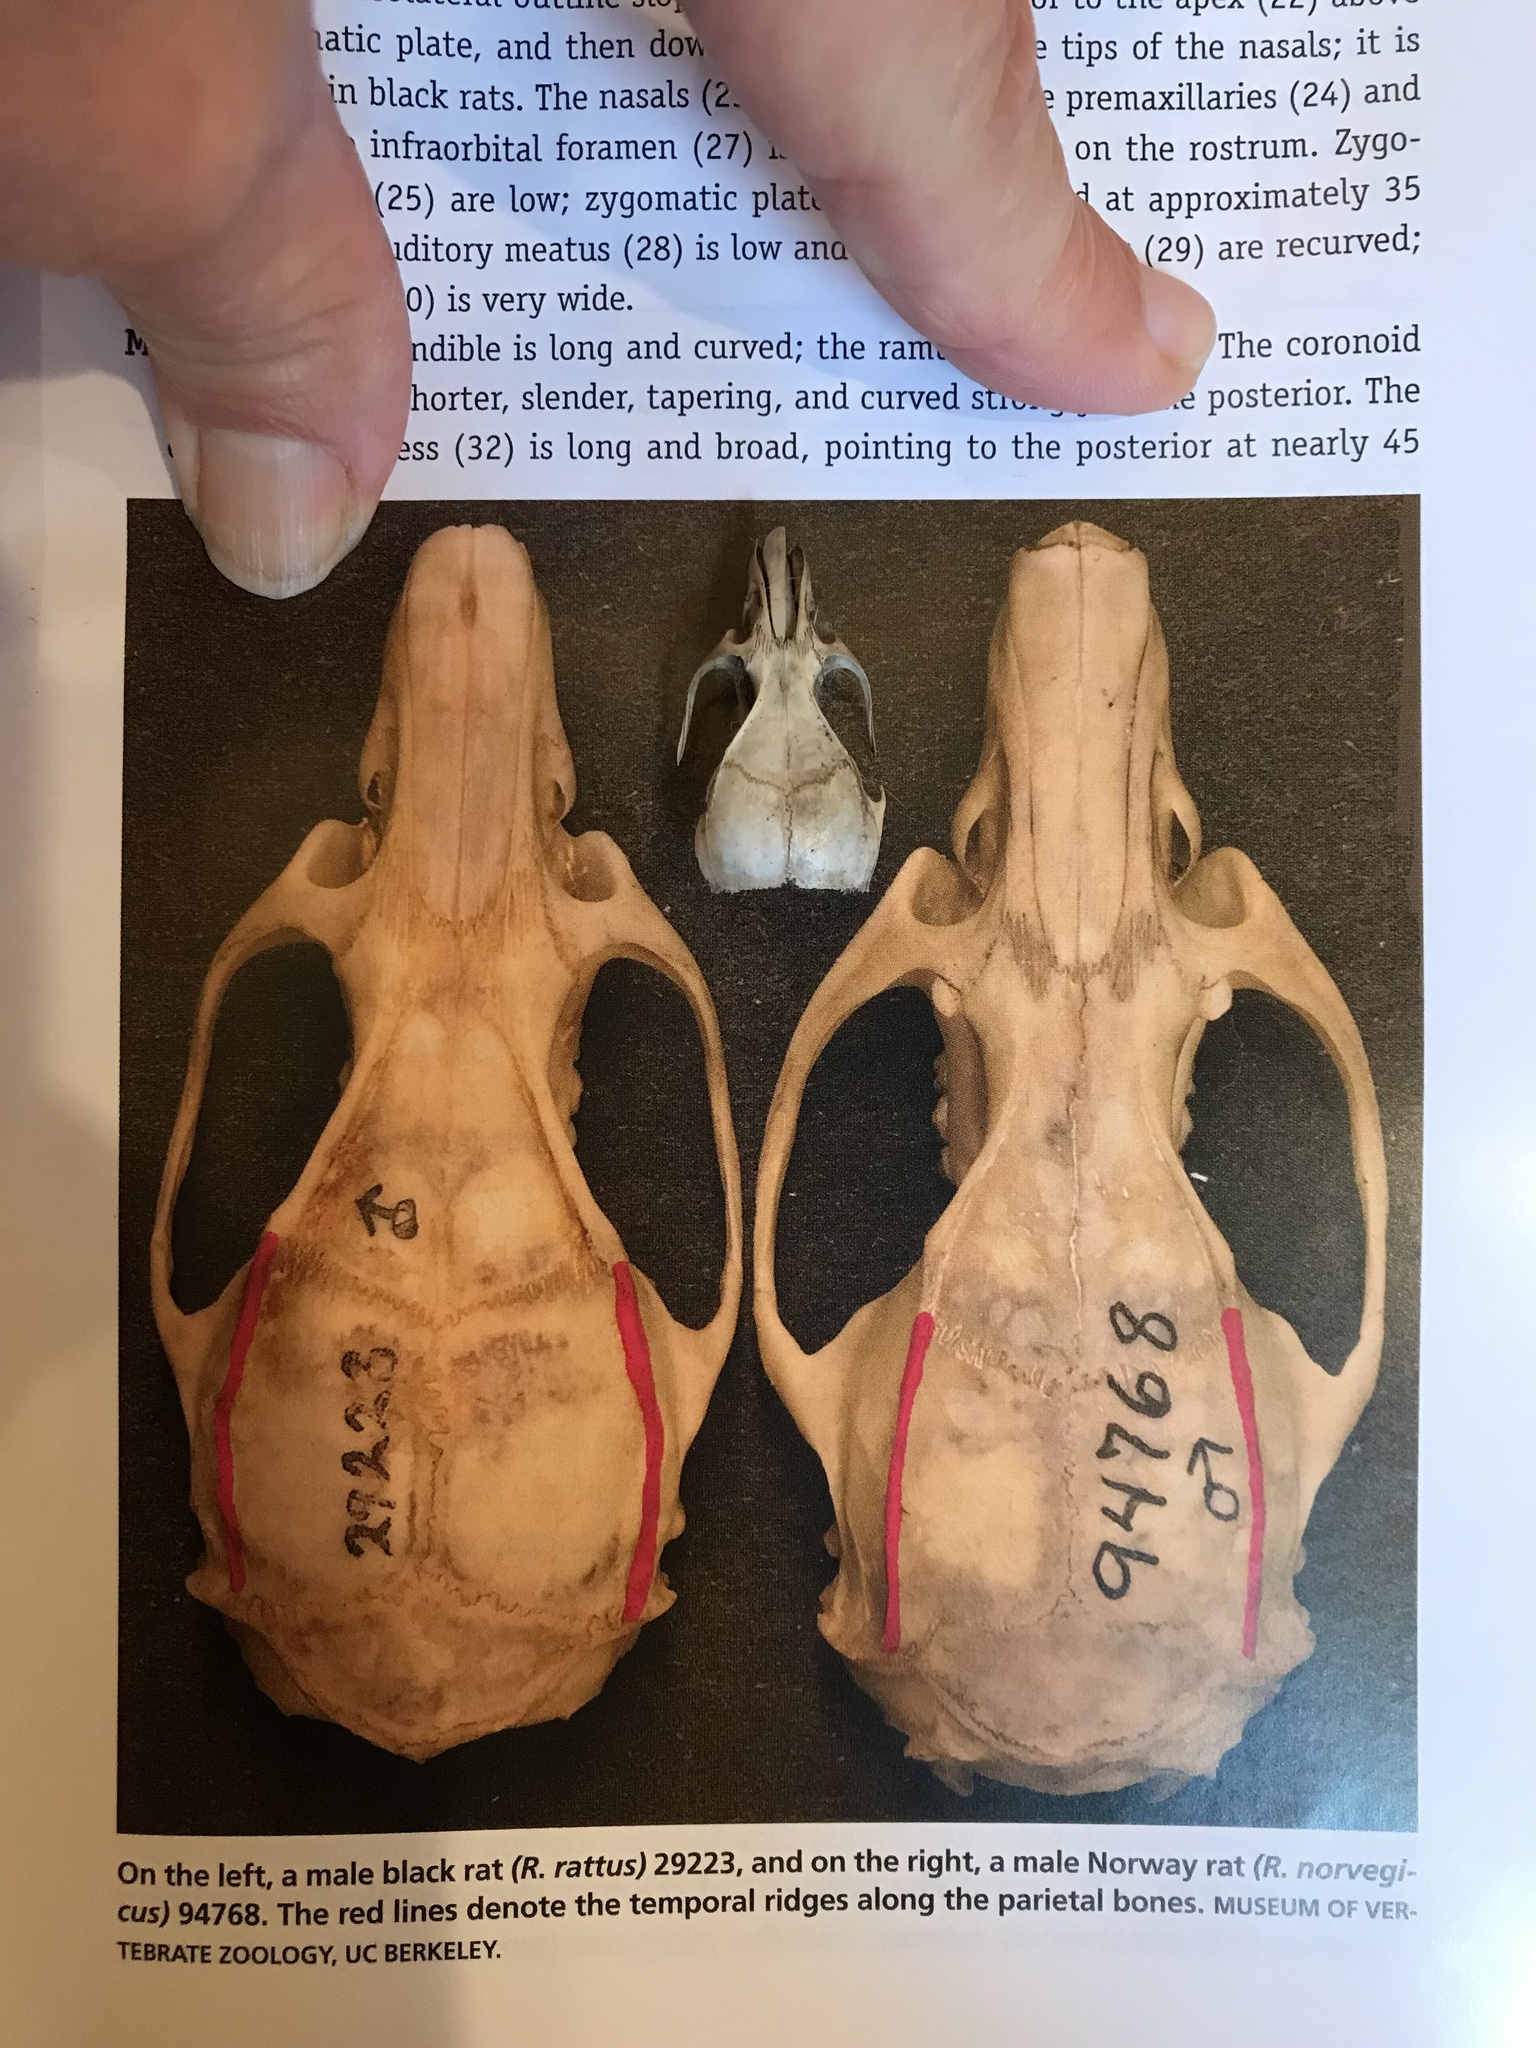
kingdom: Animalia
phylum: Chordata
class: Mammalia
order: Rodentia
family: Muridae
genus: Rattus
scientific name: Rattus rattus
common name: Black rat
